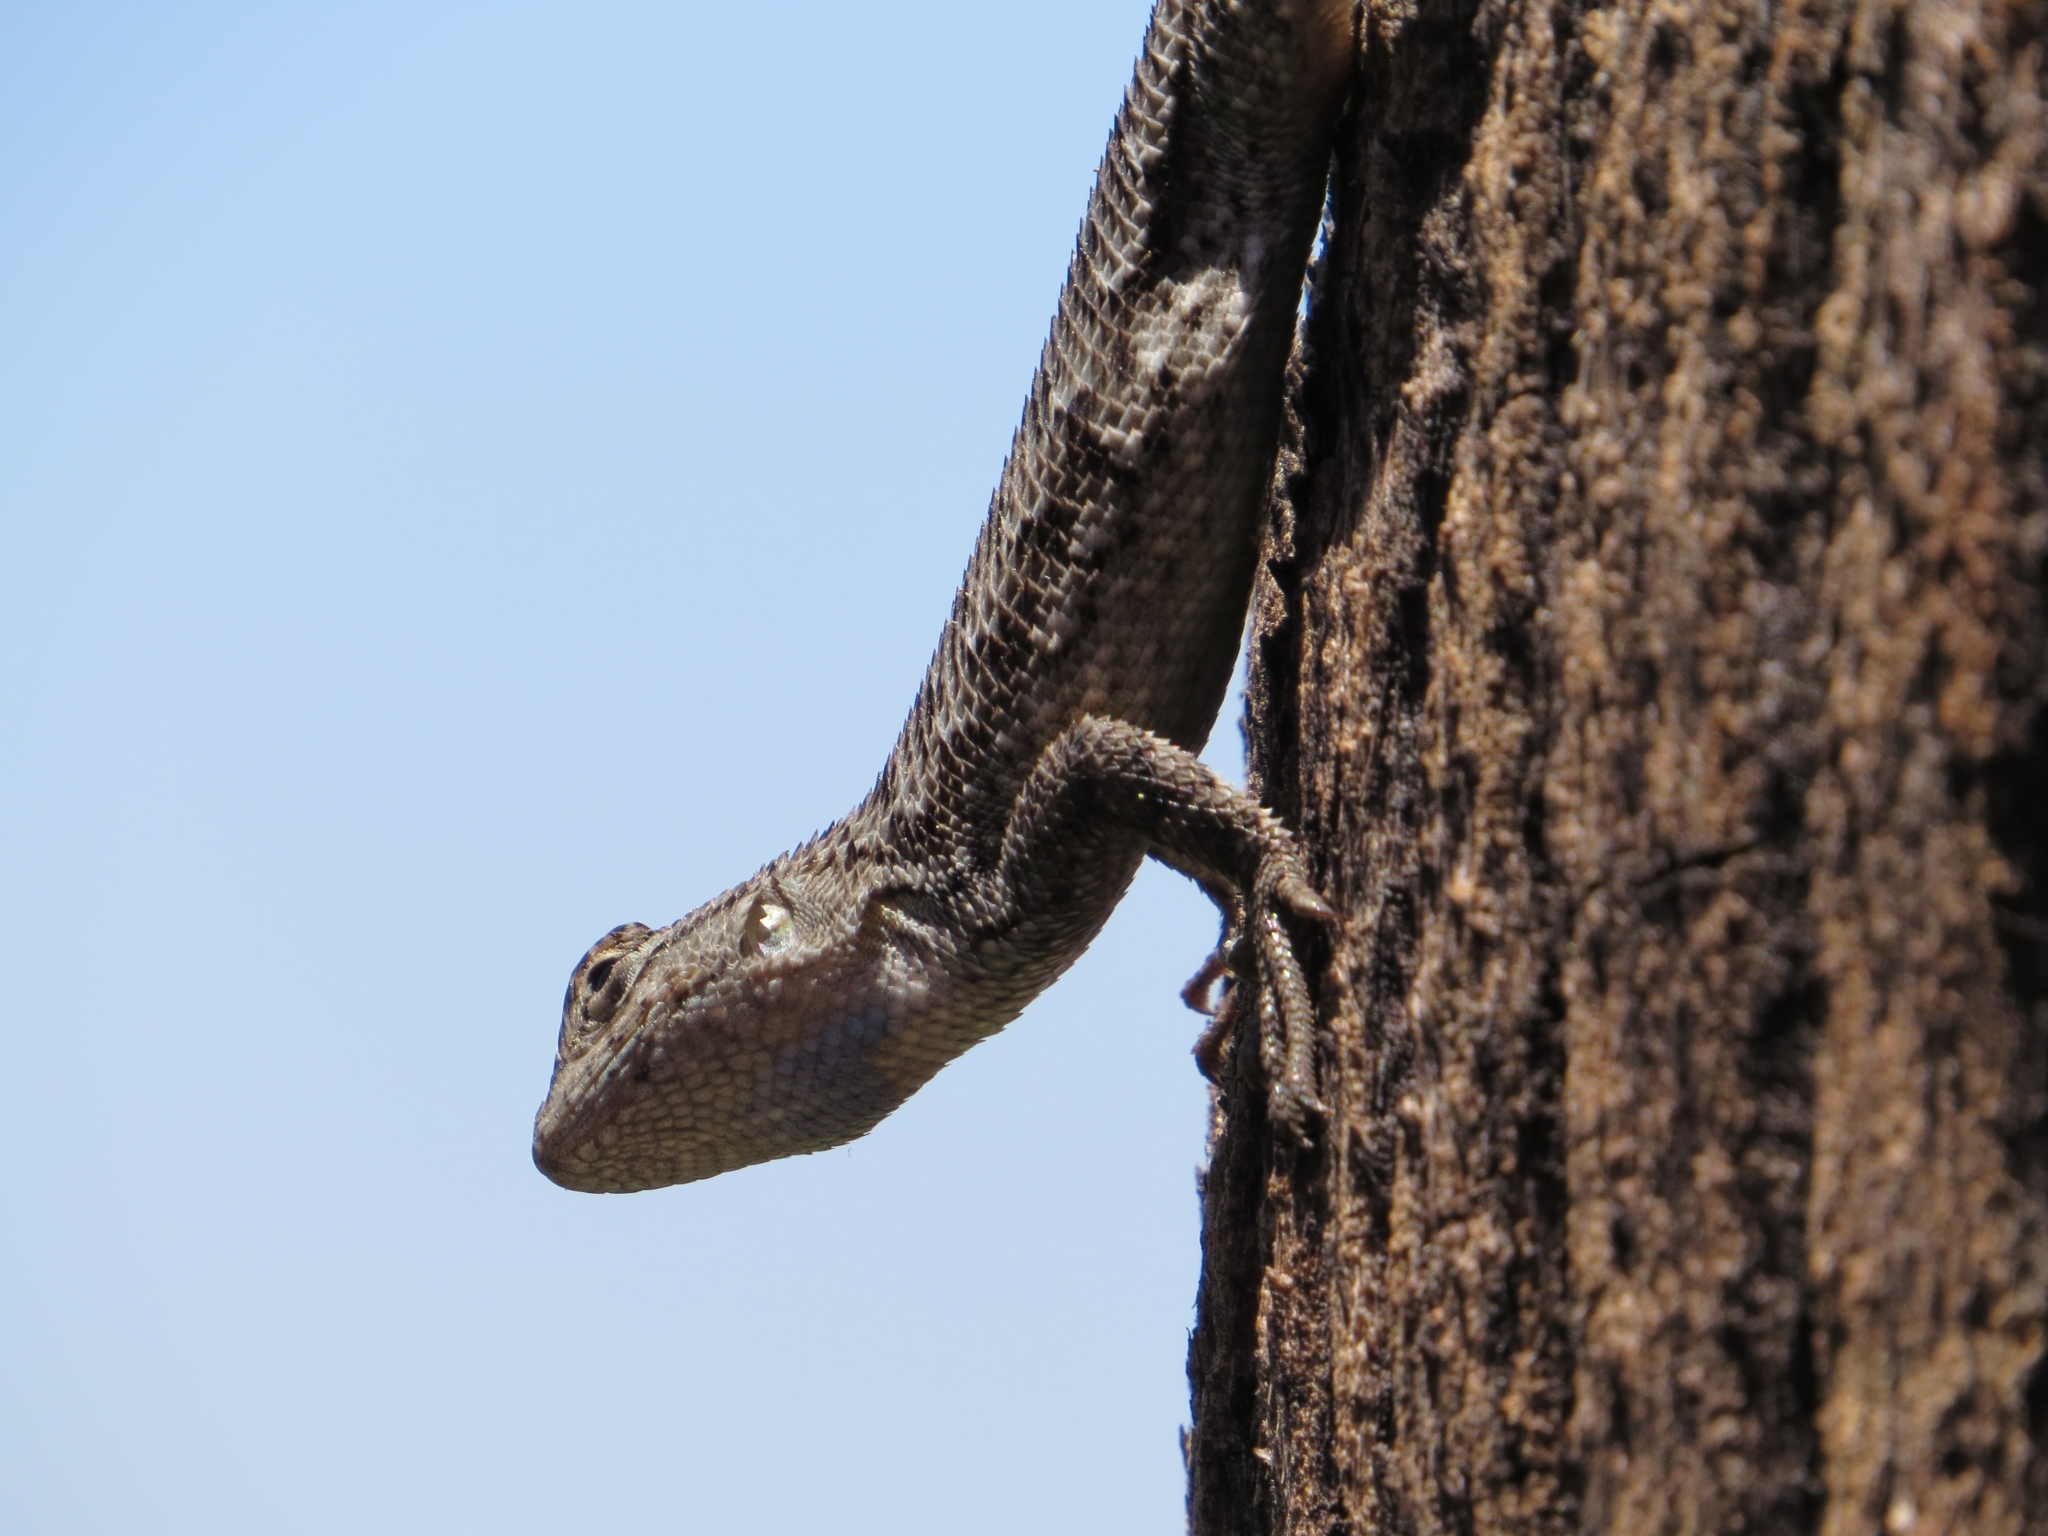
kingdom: Animalia
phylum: Chordata
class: Squamata
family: Phrynosomatidae
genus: Sceloporus
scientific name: Sceloporus occidentalis
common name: Western fence lizard
